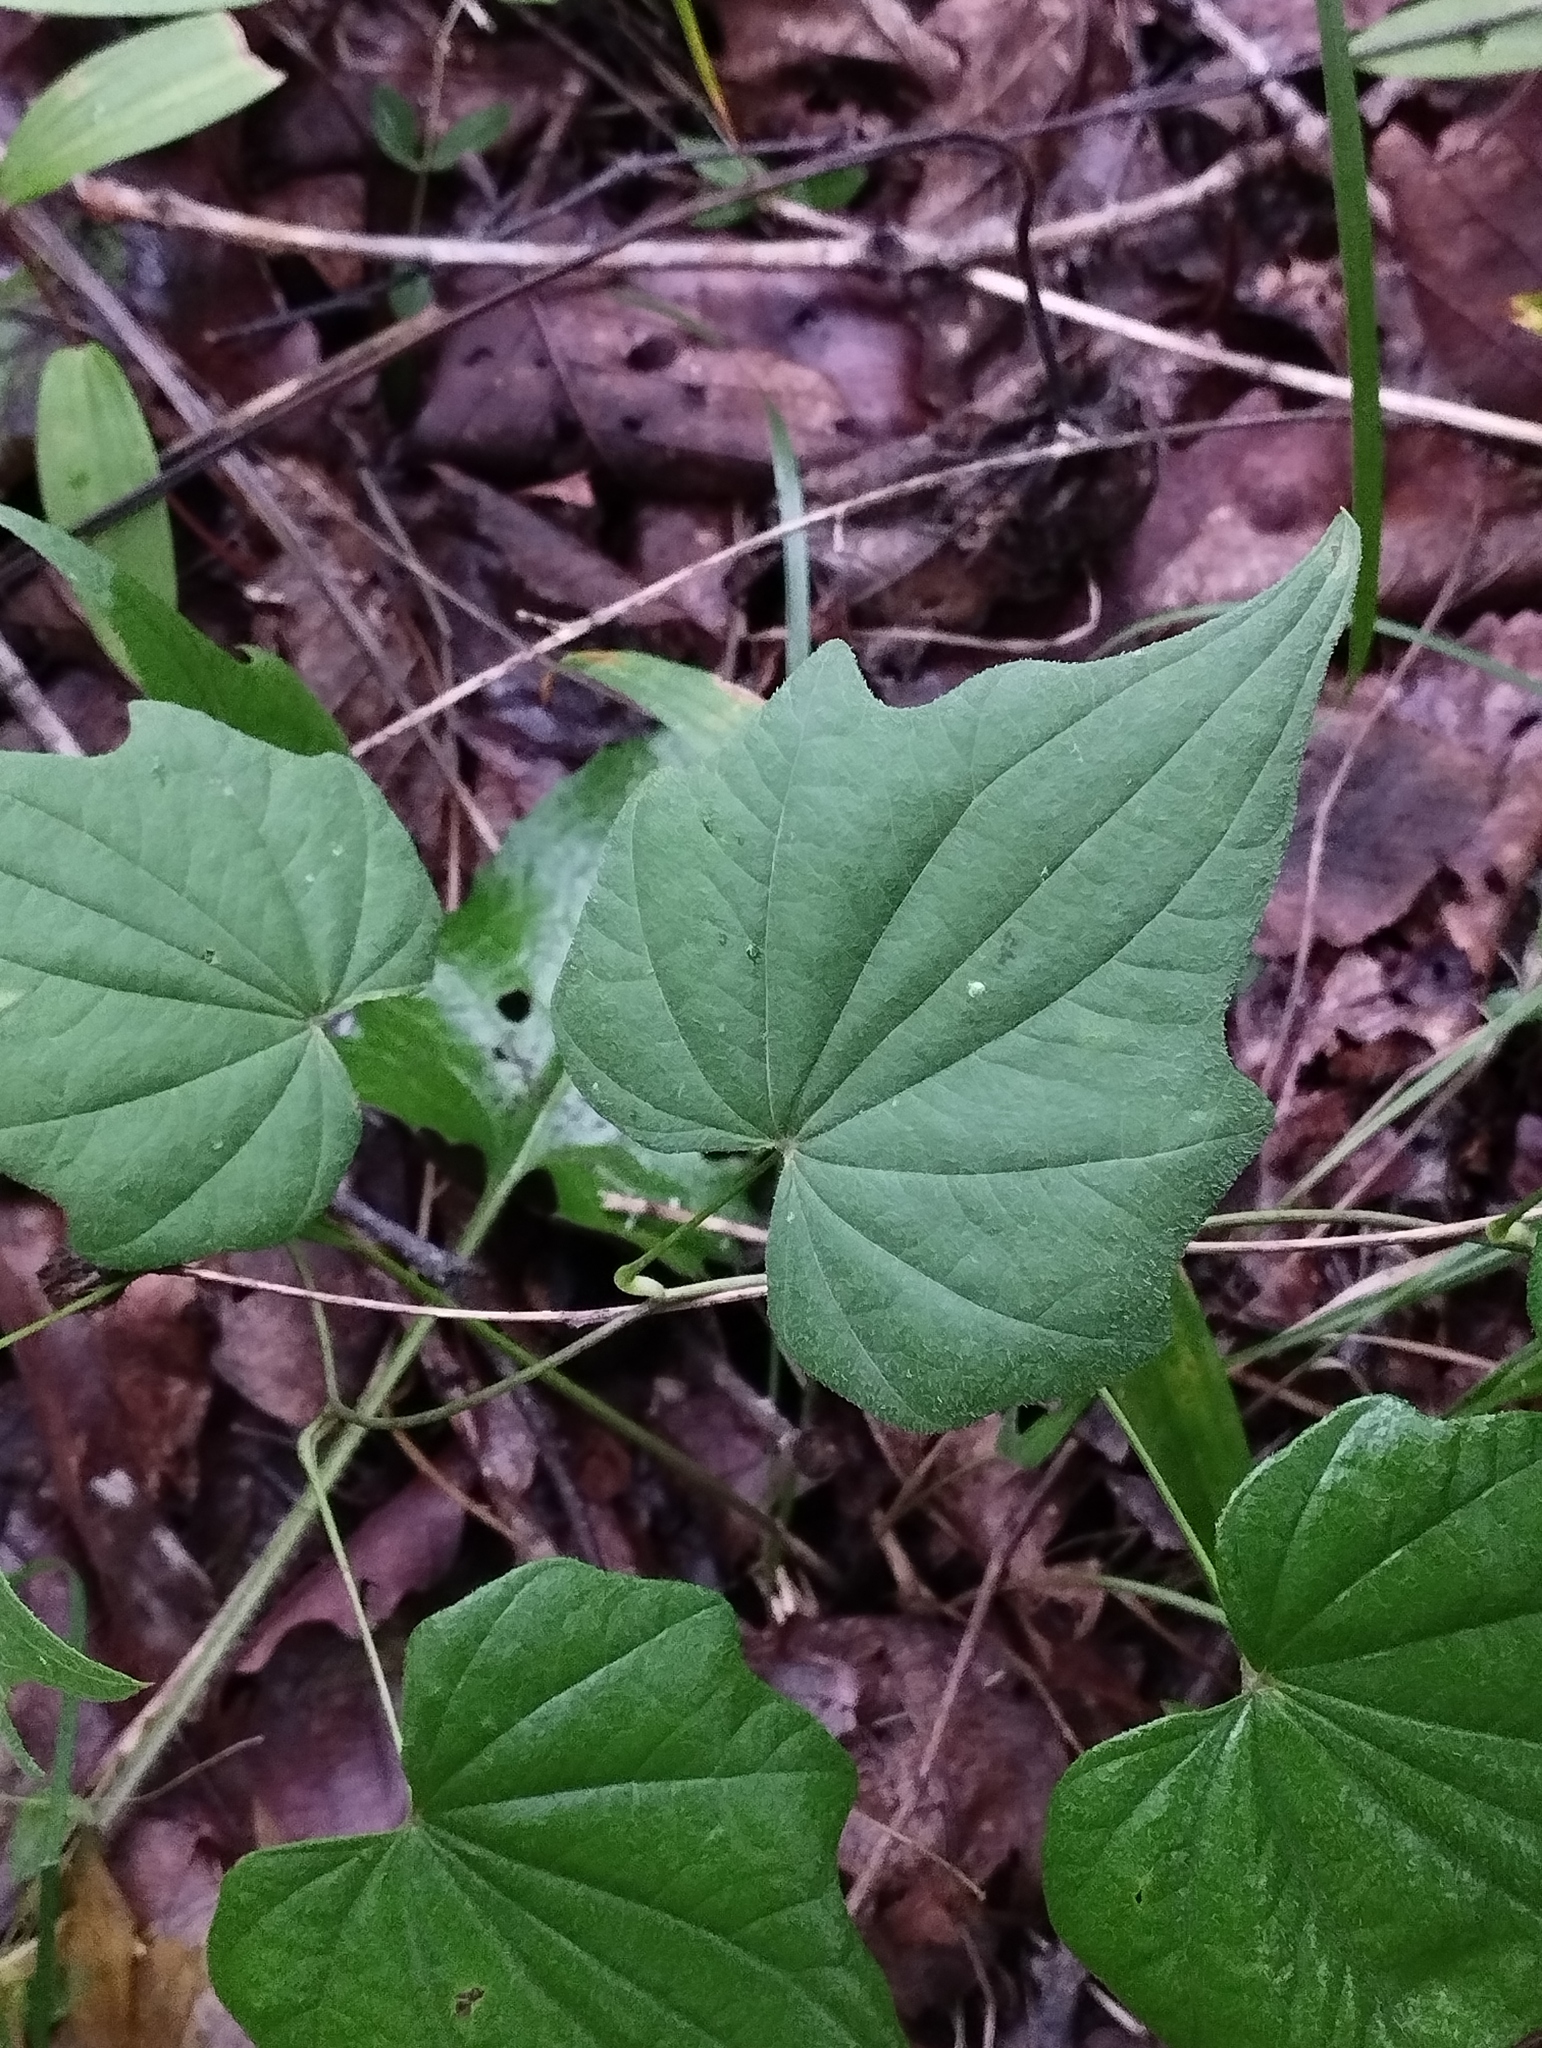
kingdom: Plantae
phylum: Tracheophyta
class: Liliopsida
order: Dioscoreales
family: Dioscoreaceae
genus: Dioscorea
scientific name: Dioscorea nipponica
